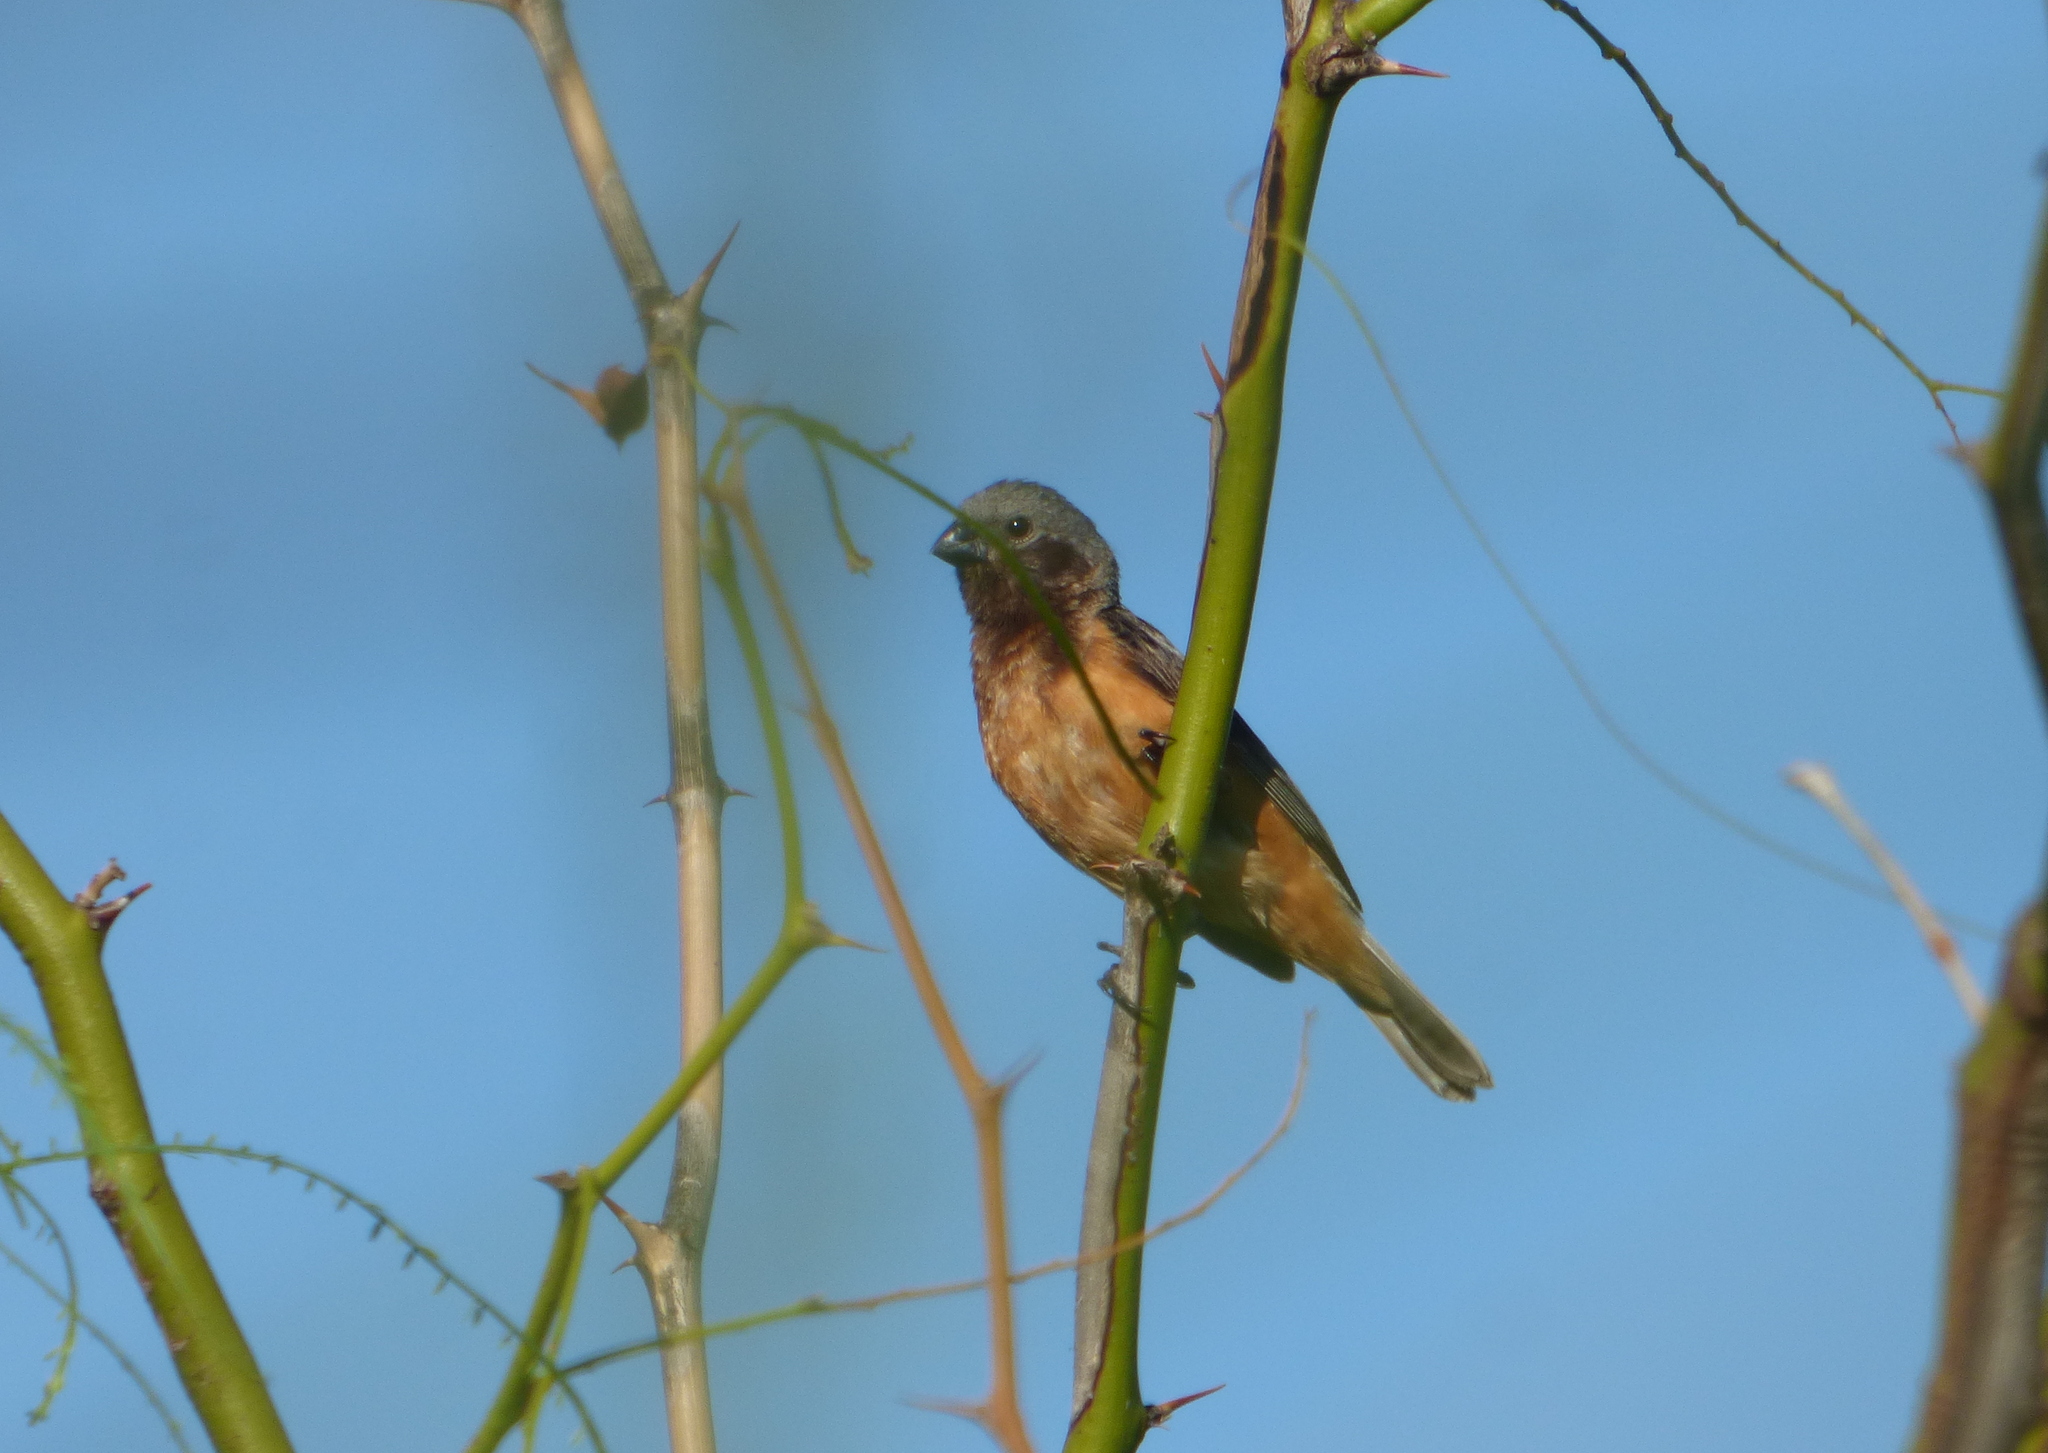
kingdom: Animalia
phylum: Chordata
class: Aves
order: Passeriformes
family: Thraupidae
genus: Sporophila
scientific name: Sporophila ruficollis
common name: Dark-throated seedeater
